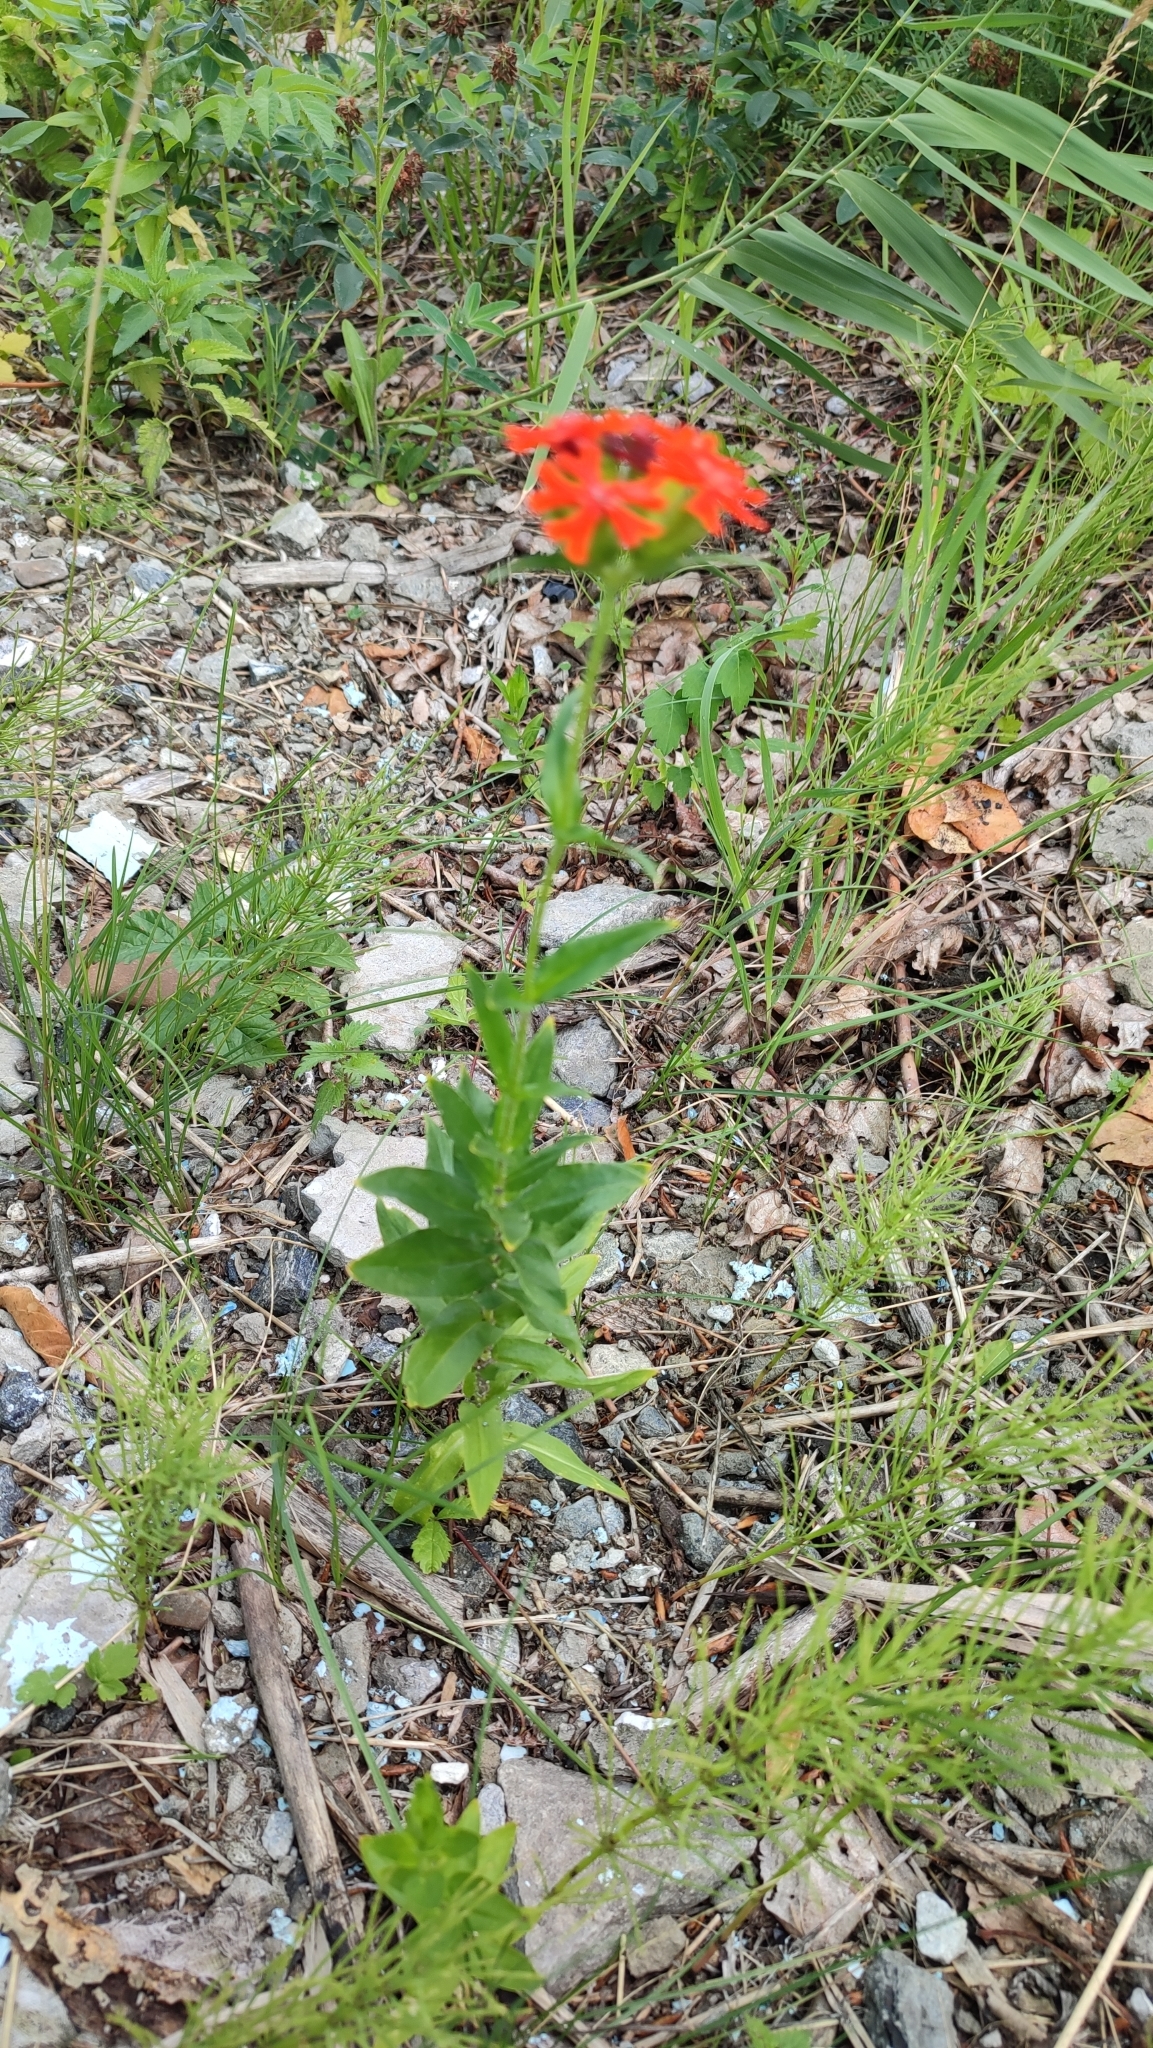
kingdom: Plantae
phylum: Tracheophyta
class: Magnoliopsida
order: Caryophyllales
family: Caryophyllaceae
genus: Silene
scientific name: Silene chalcedonica
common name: Maltese-cross
